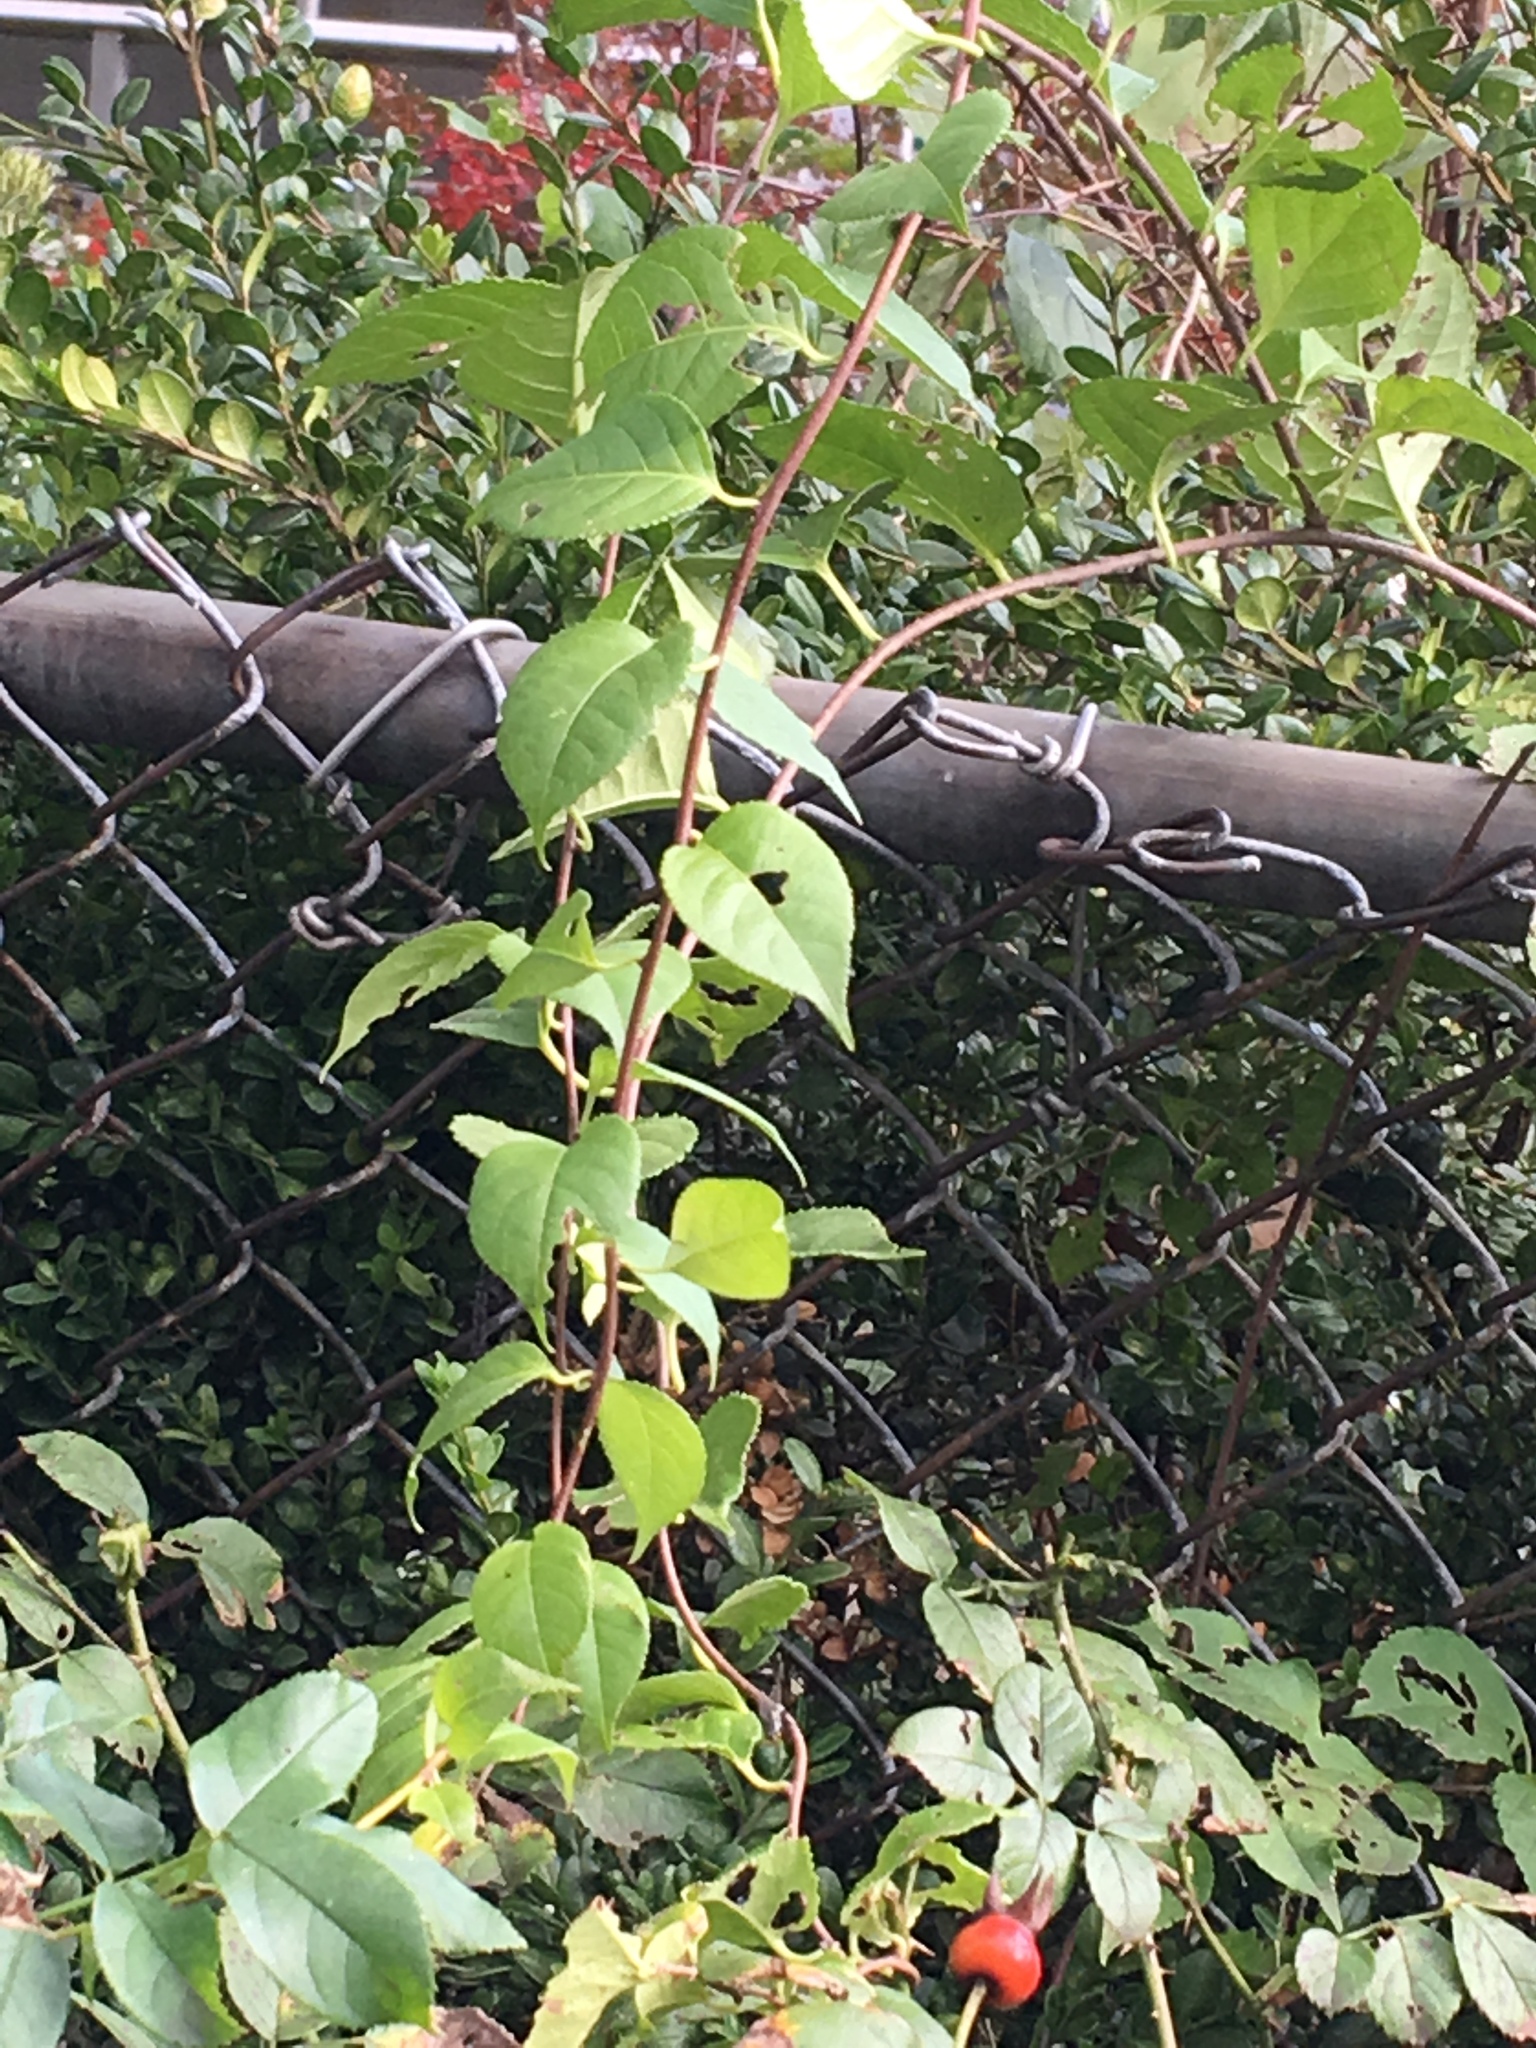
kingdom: Plantae
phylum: Tracheophyta
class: Magnoliopsida
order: Celastrales
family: Celastraceae
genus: Celastrus
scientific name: Celastrus orbiculatus
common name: Oriental bittersweet
